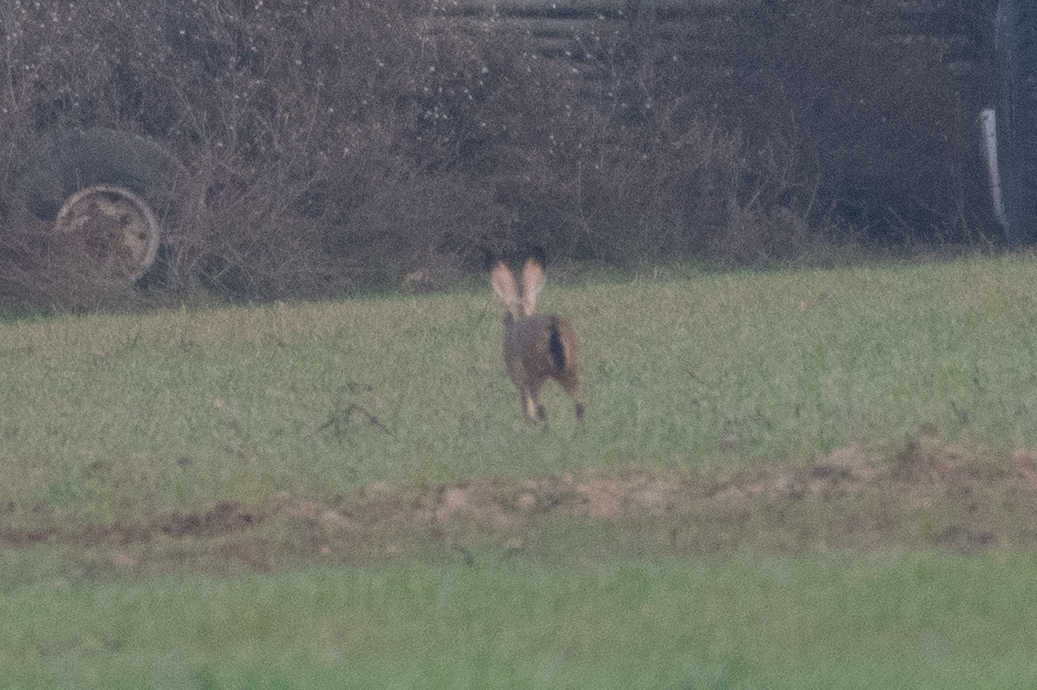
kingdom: Animalia
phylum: Chordata
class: Mammalia
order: Lagomorpha
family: Leporidae
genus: Lepus
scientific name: Lepus californicus
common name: Black-tailed jackrabbit
